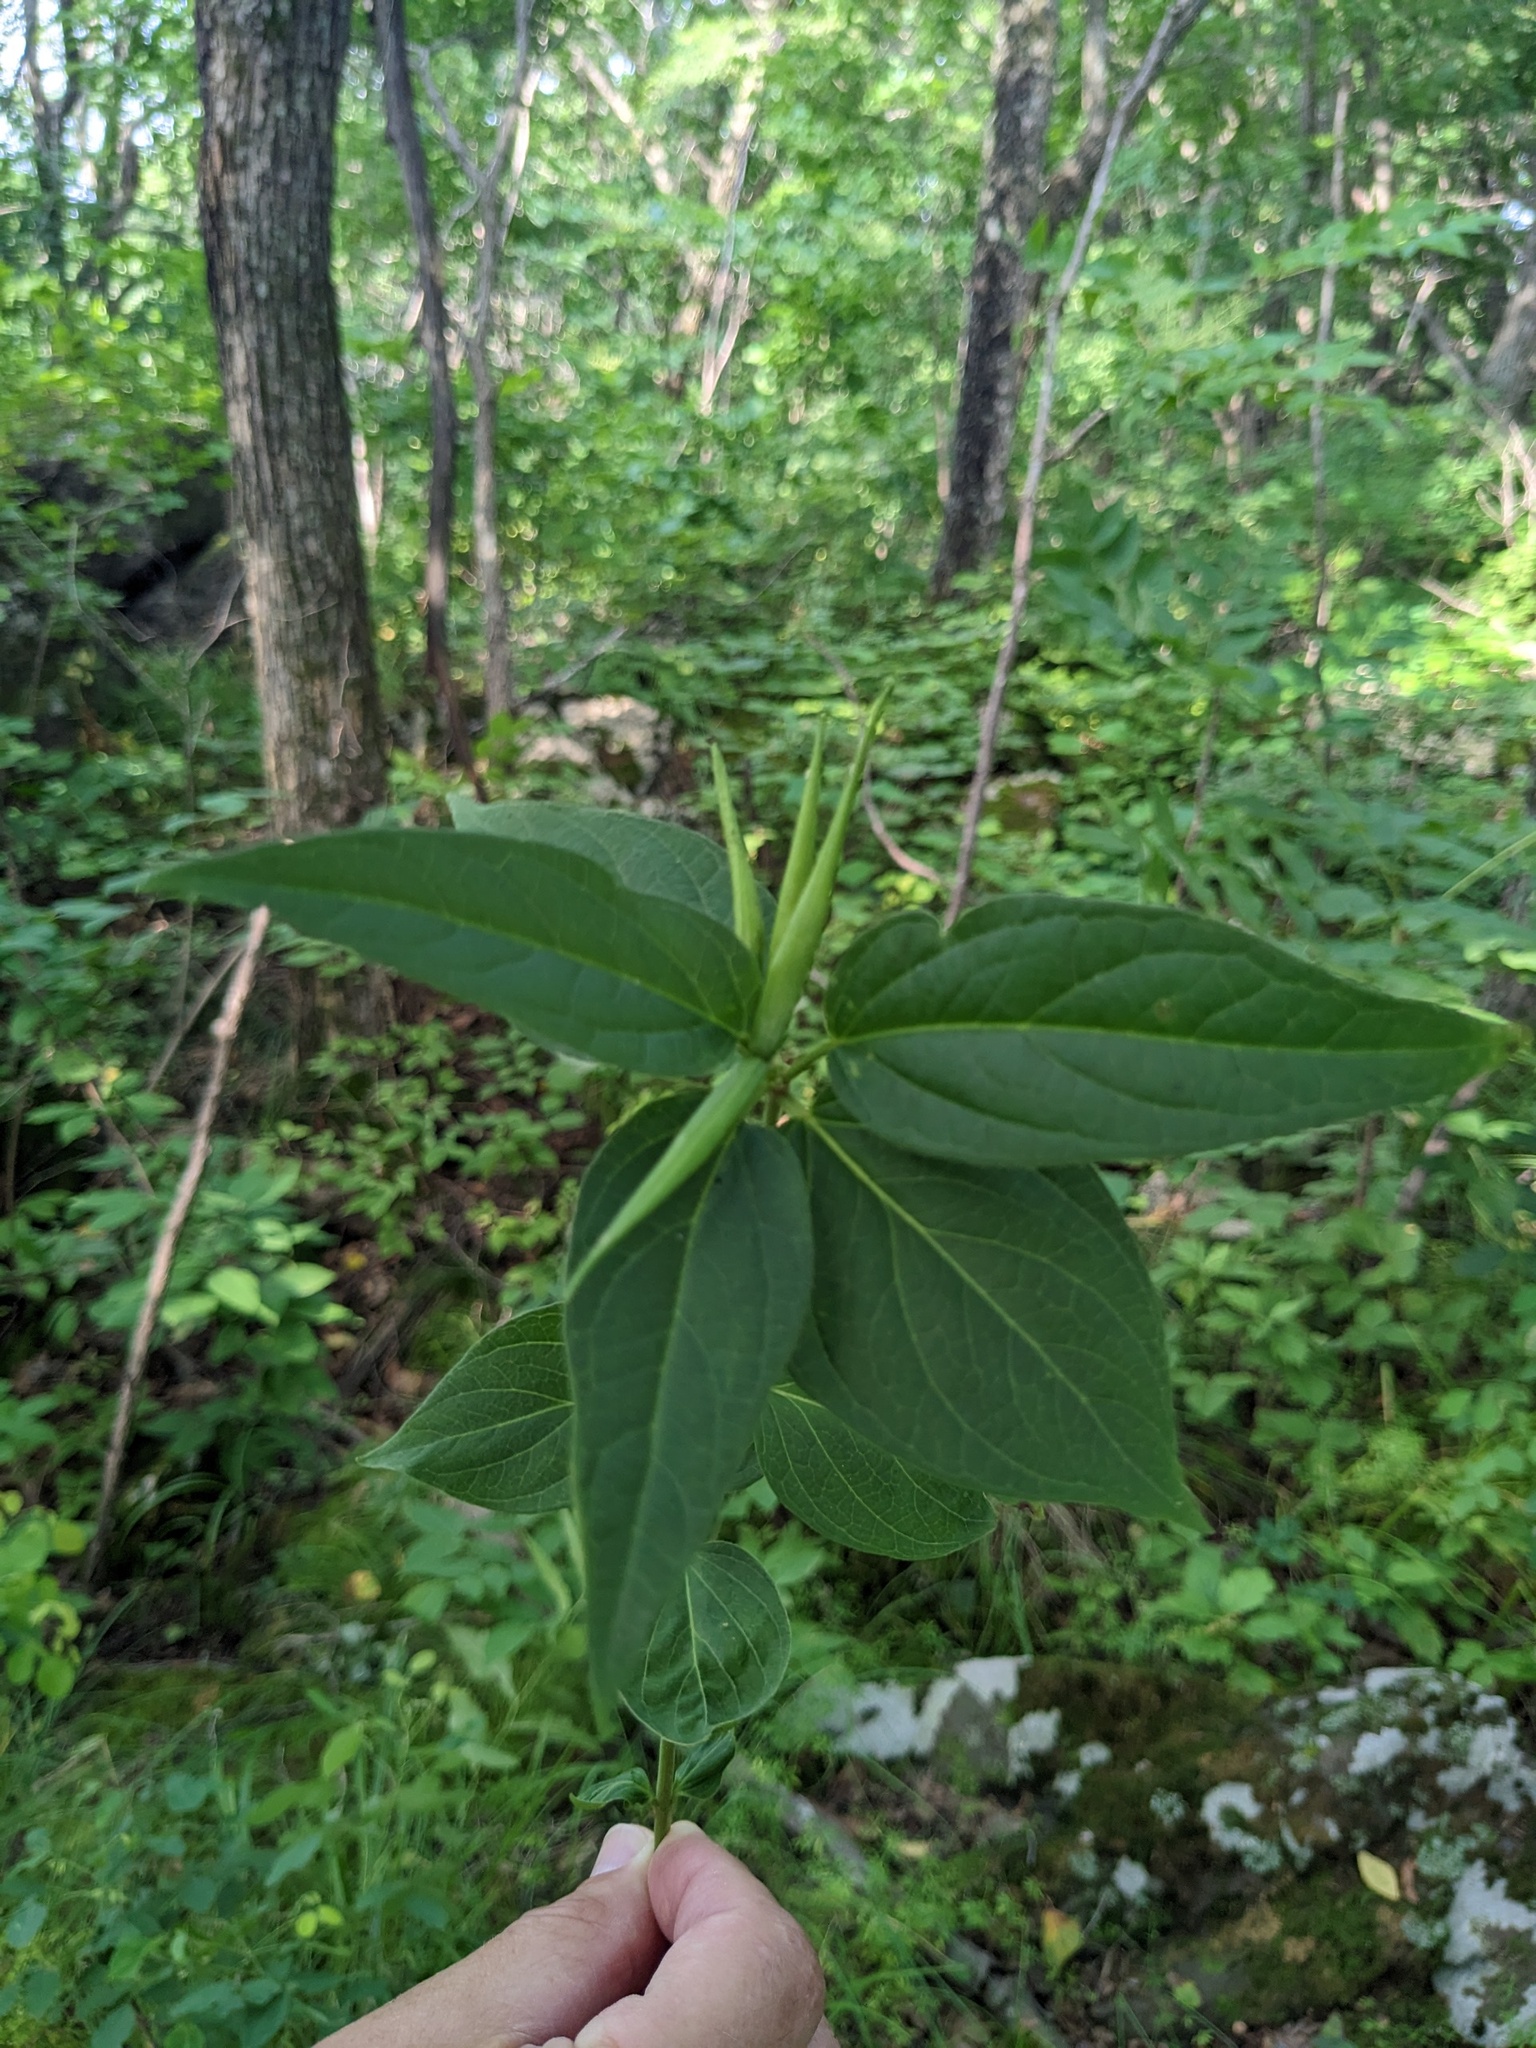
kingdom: Plantae
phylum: Tracheophyta
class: Magnoliopsida
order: Gentianales
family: Apocynaceae
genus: Vincetoxicum
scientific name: Vincetoxicum inamoenum
